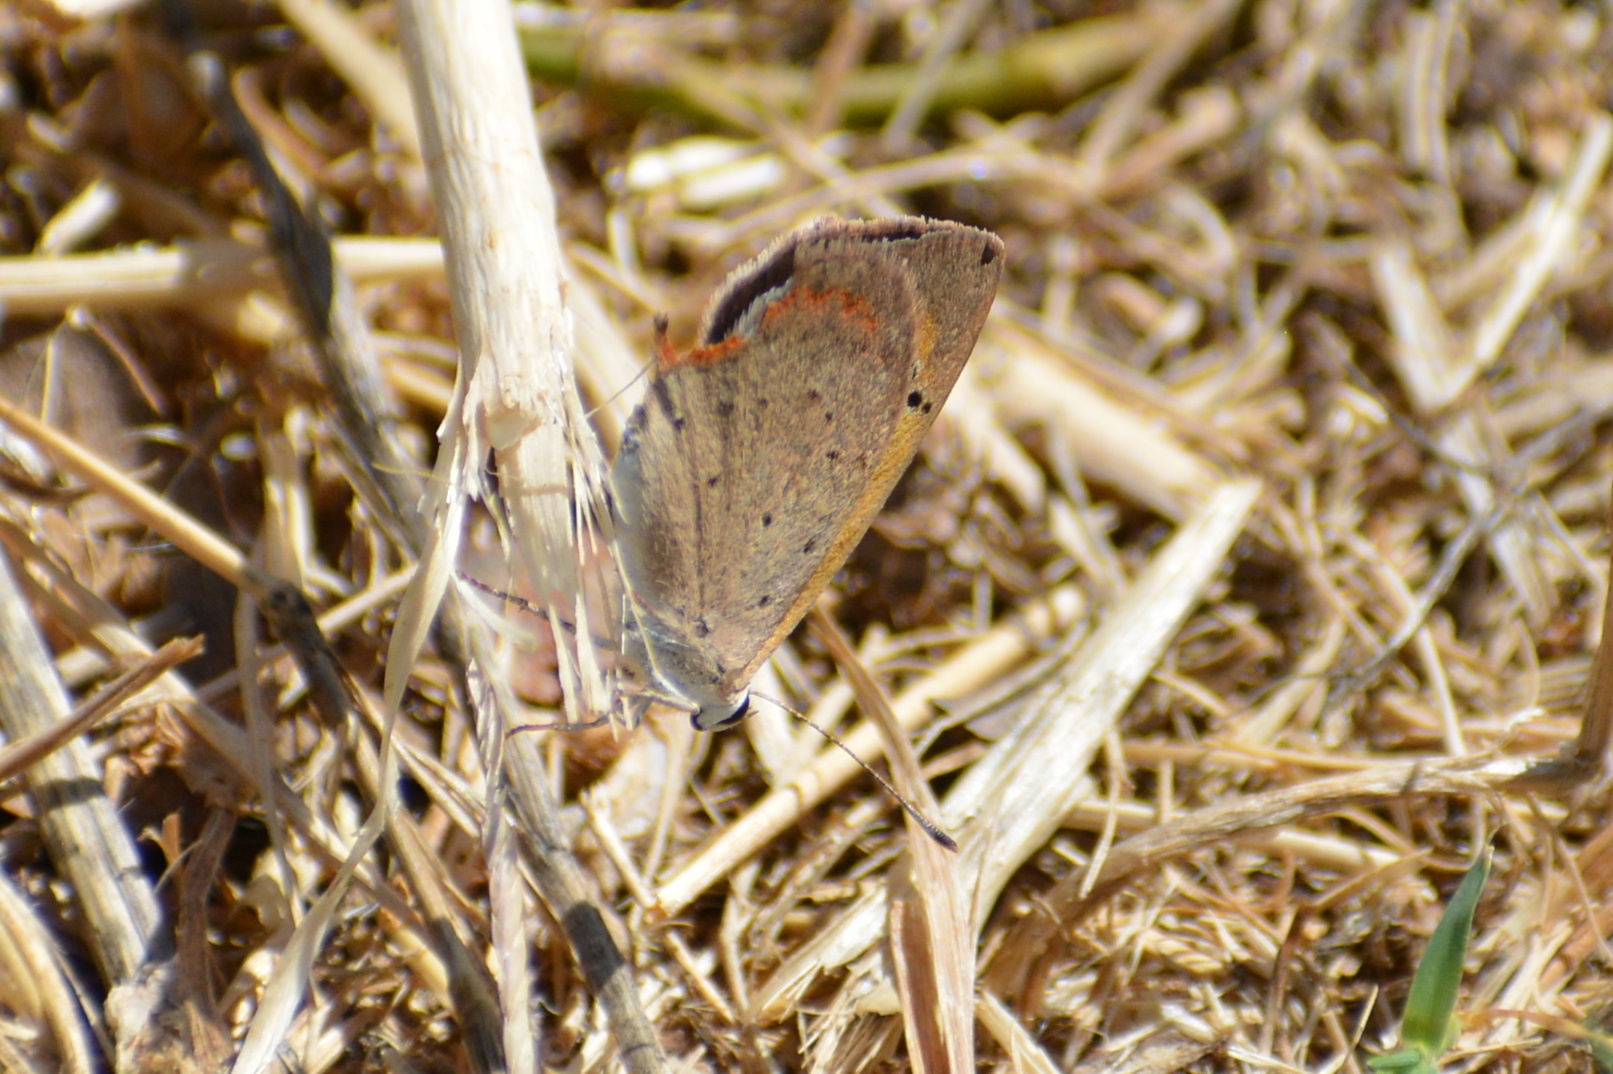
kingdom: Animalia
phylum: Arthropoda
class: Insecta
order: Lepidoptera
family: Lycaenidae
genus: Lycaena
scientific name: Lycaena phlaeas
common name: Small copper
